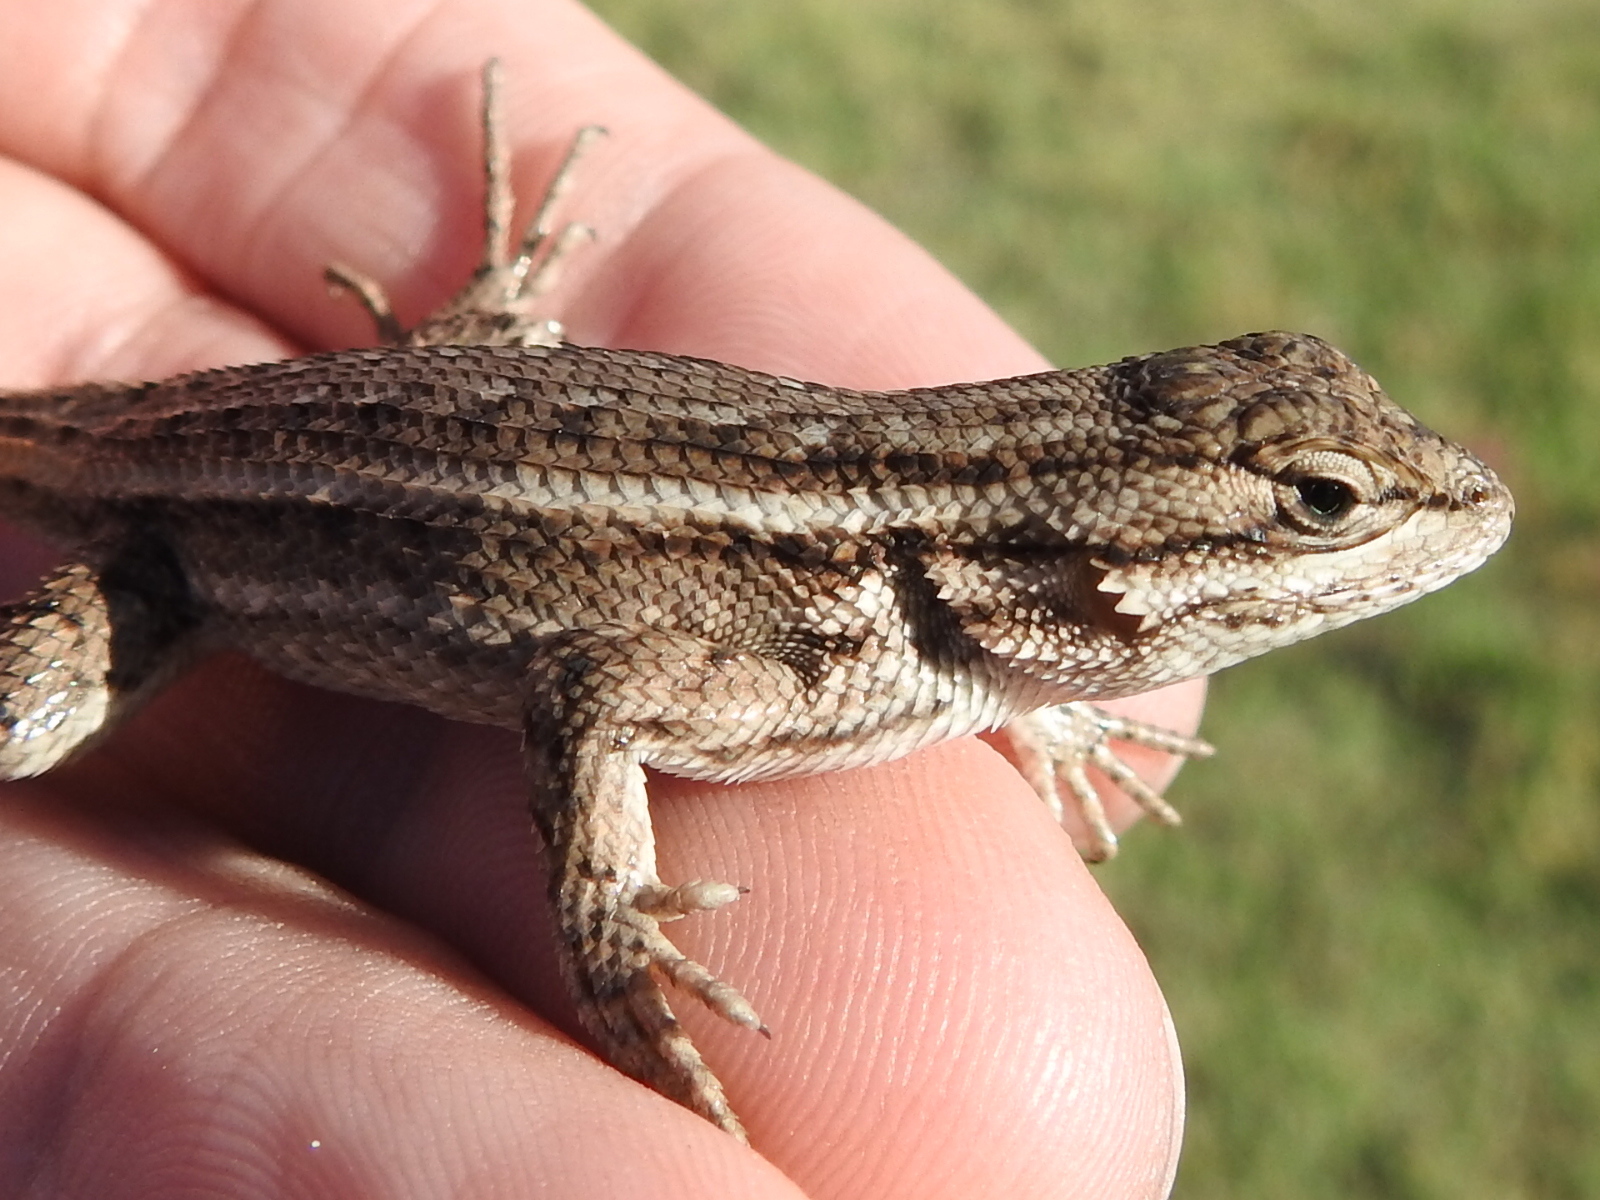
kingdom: Animalia
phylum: Chordata
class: Squamata
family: Phrynosomatidae
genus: Sceloporus
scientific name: Sceloporus consobrinus
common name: Southern prairie lizard
